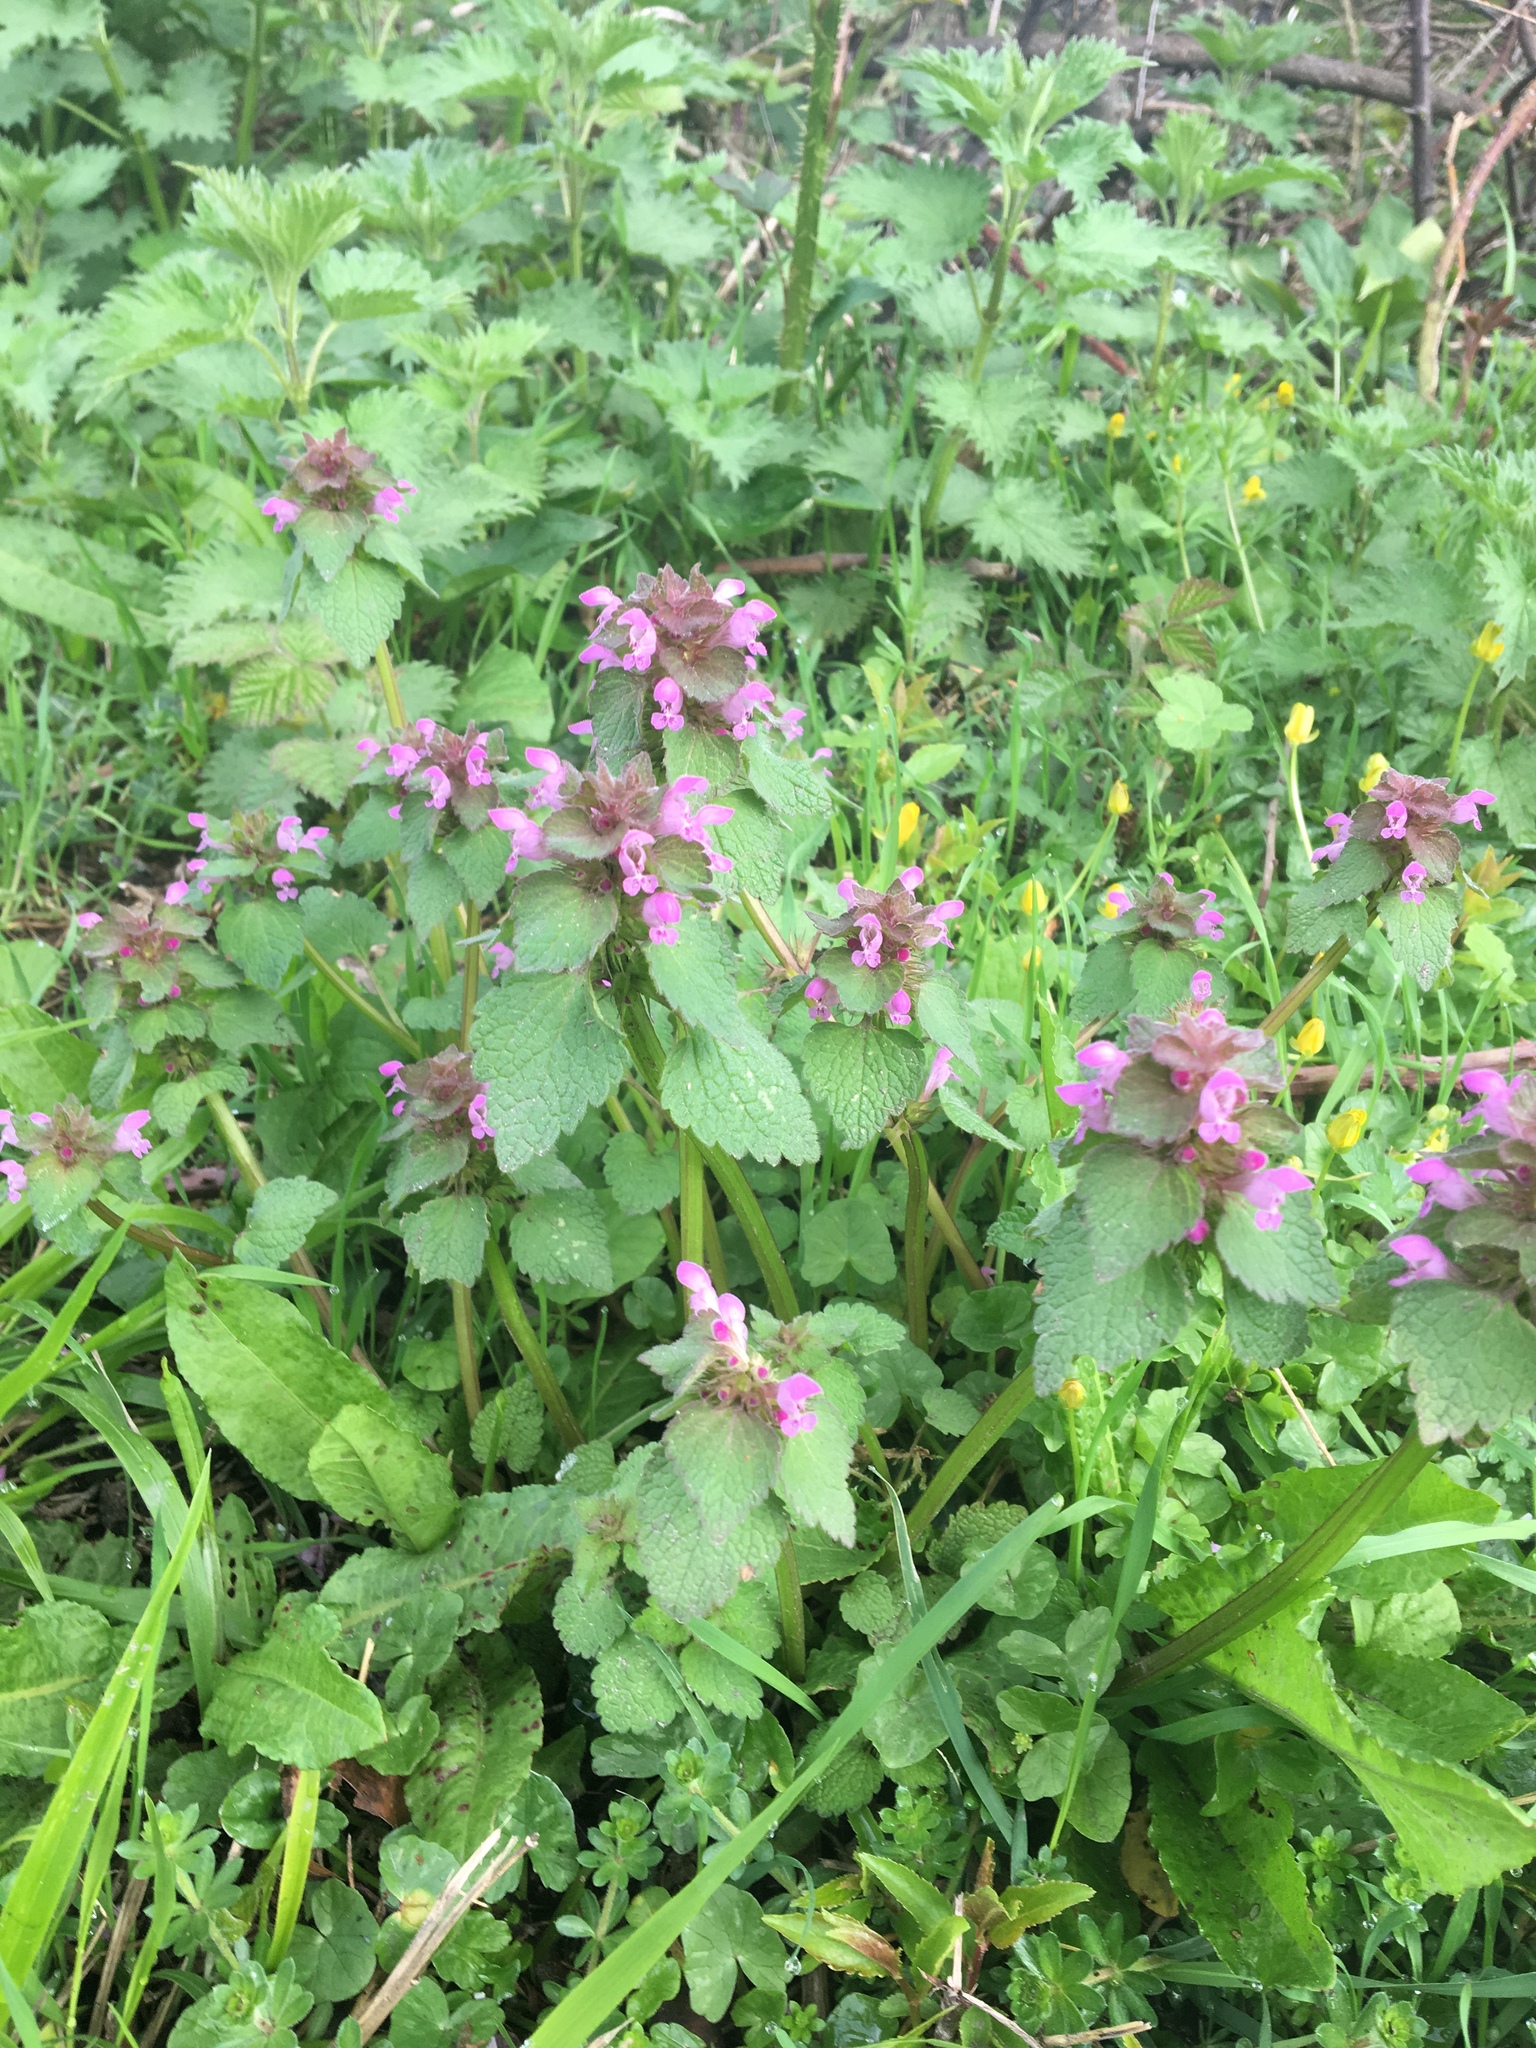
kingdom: Plantae
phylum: Tracheophyta
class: Magnoliopsida
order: Lamiales
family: Lamiaceae
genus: Lamium
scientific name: Lamium purpureum
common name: Red dead-nettle
